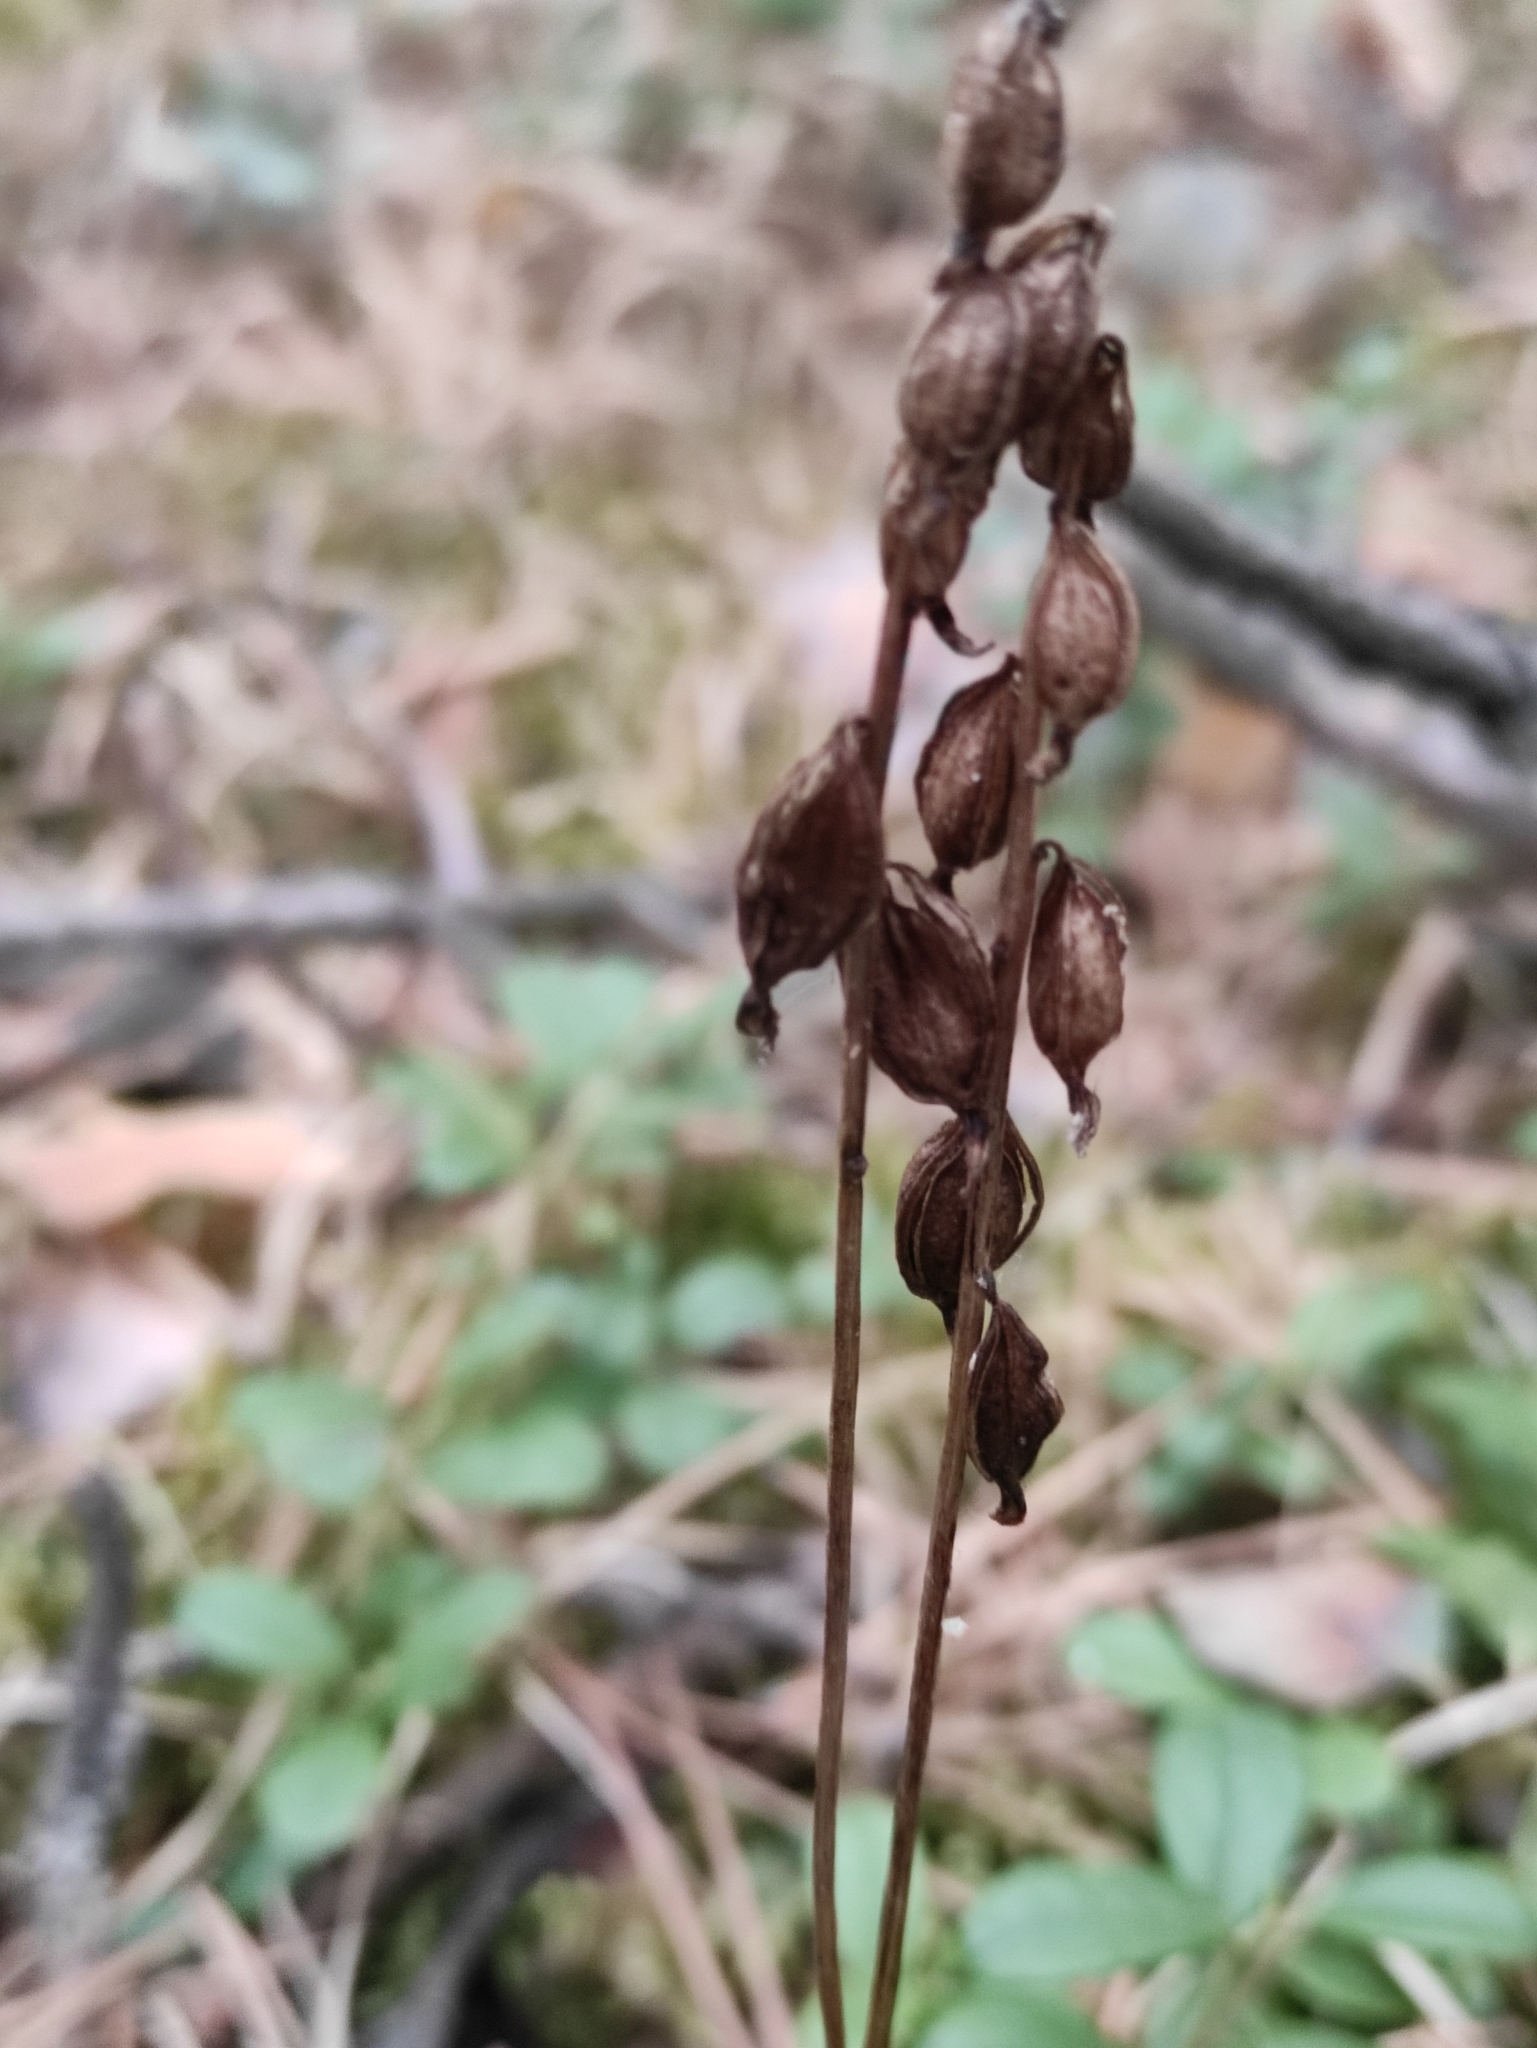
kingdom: Plantae
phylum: Tracheophyta
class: Liliopsida
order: Asparagales
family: Orchidaceae
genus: Corallorhiza
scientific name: Corallorhiza trifida
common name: Yellow coralroot
